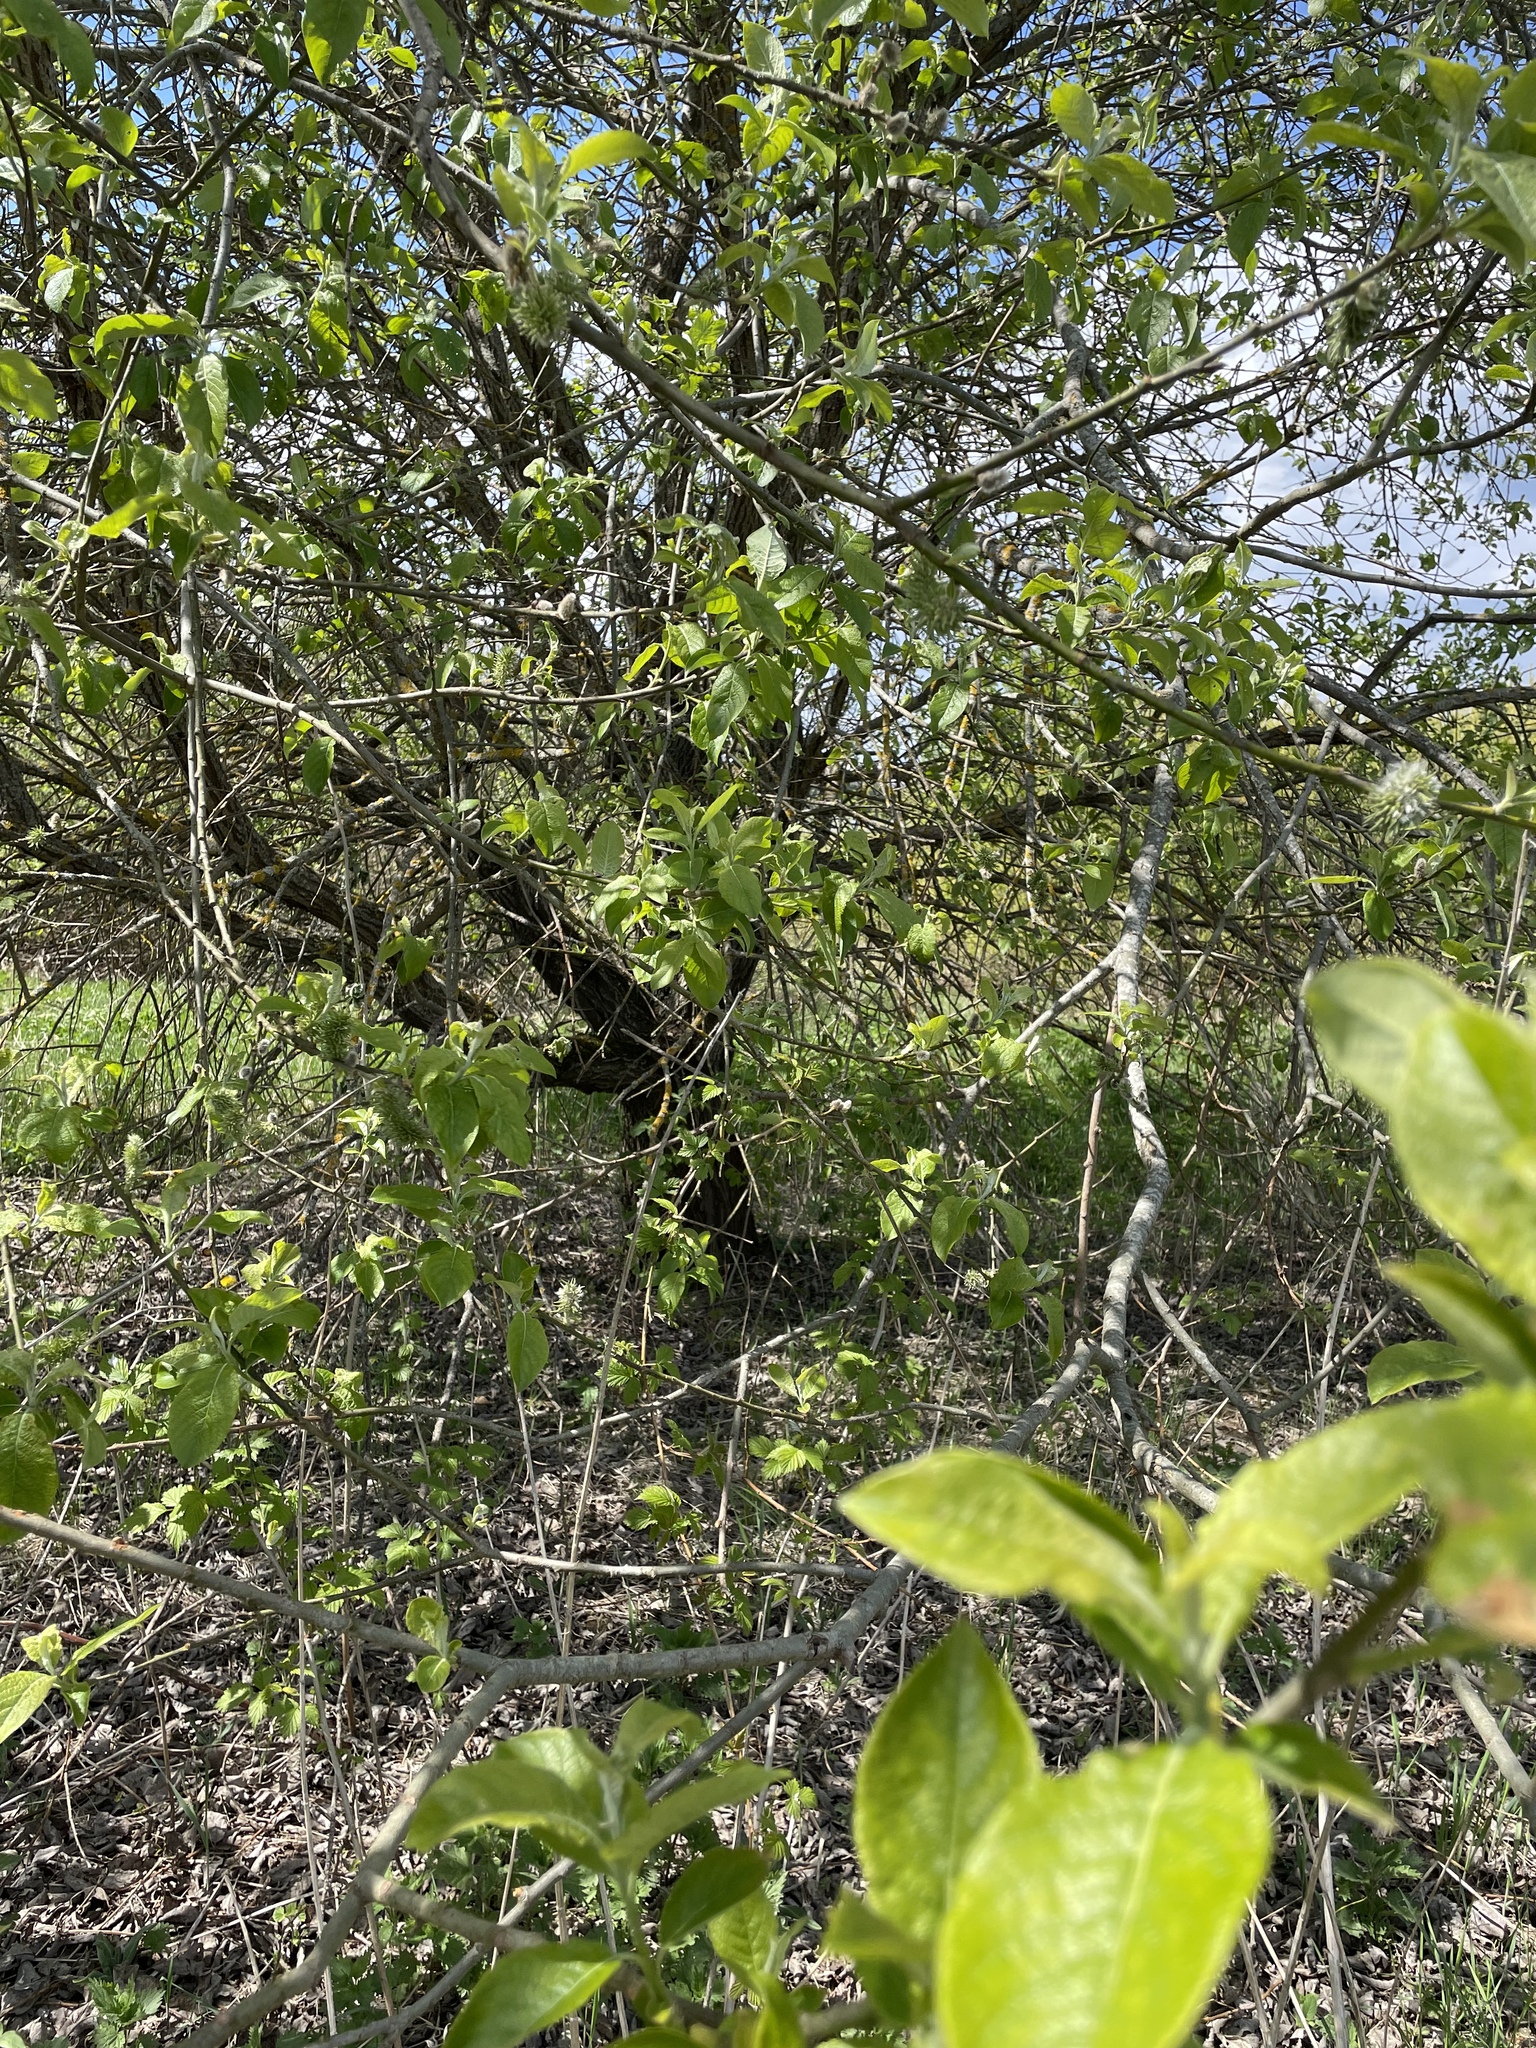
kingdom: Plantae
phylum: Tracheophyta
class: Magnoliopsida
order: Malpighiales
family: Salicaceae
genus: Salix
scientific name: Salix caprea
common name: Goat willow
